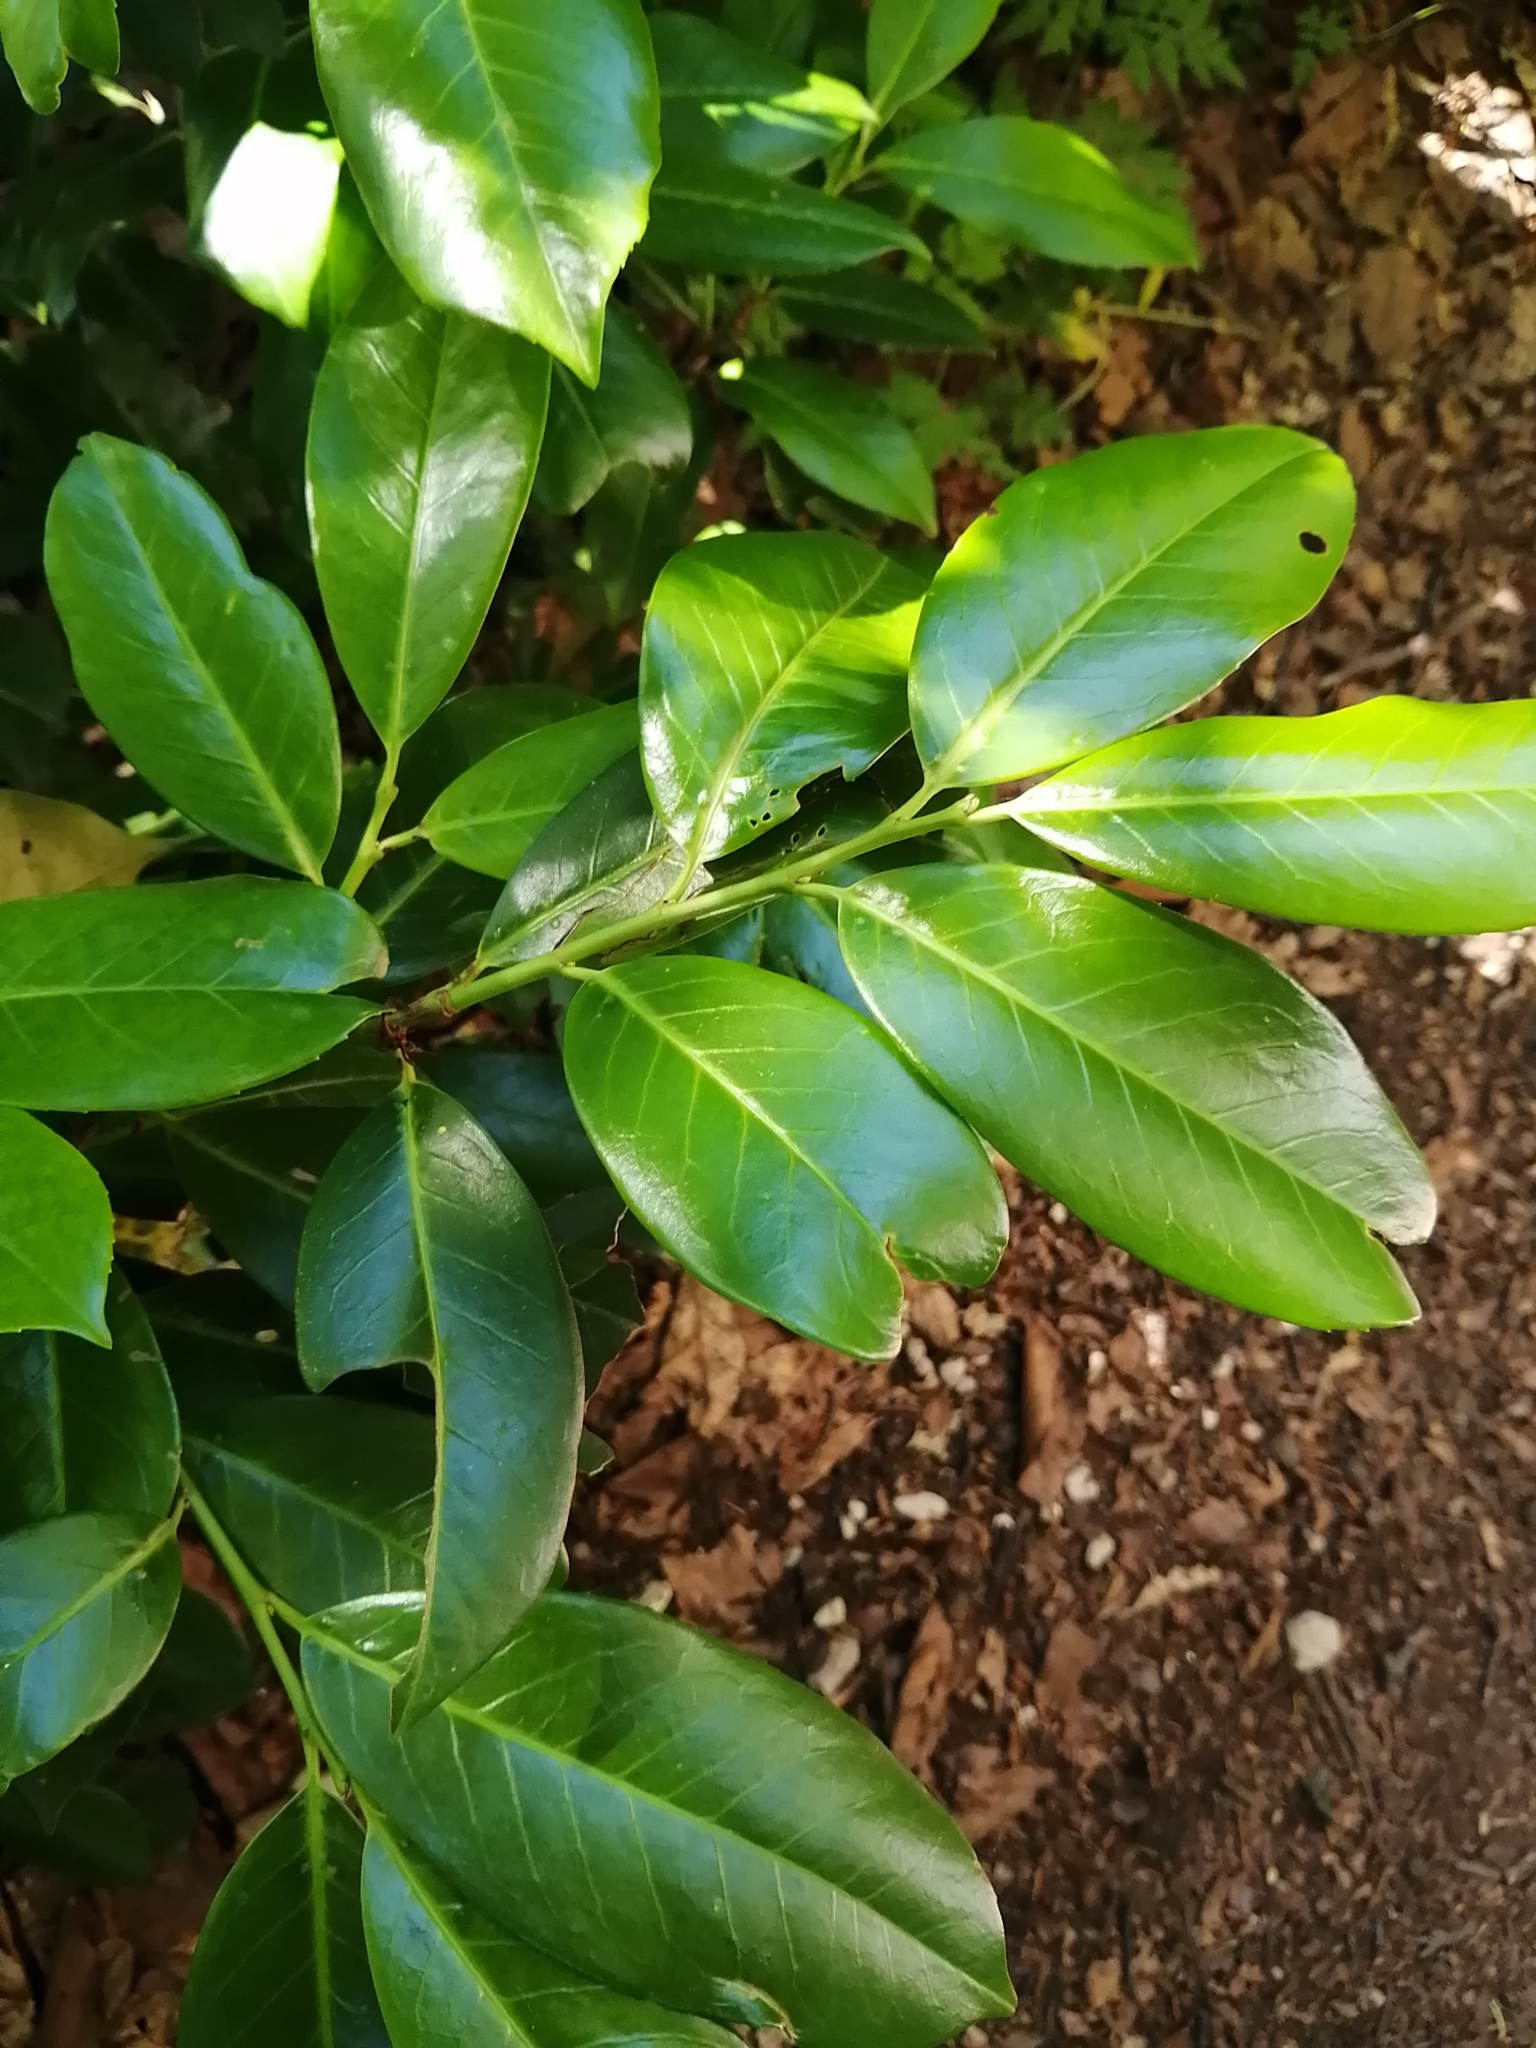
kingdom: Plantae
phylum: Tracheophyta
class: Magnoliopsida
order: Rosales
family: Rosaceae
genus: Prunus
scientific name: Prunus laurocerasus
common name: Cherry laurel
